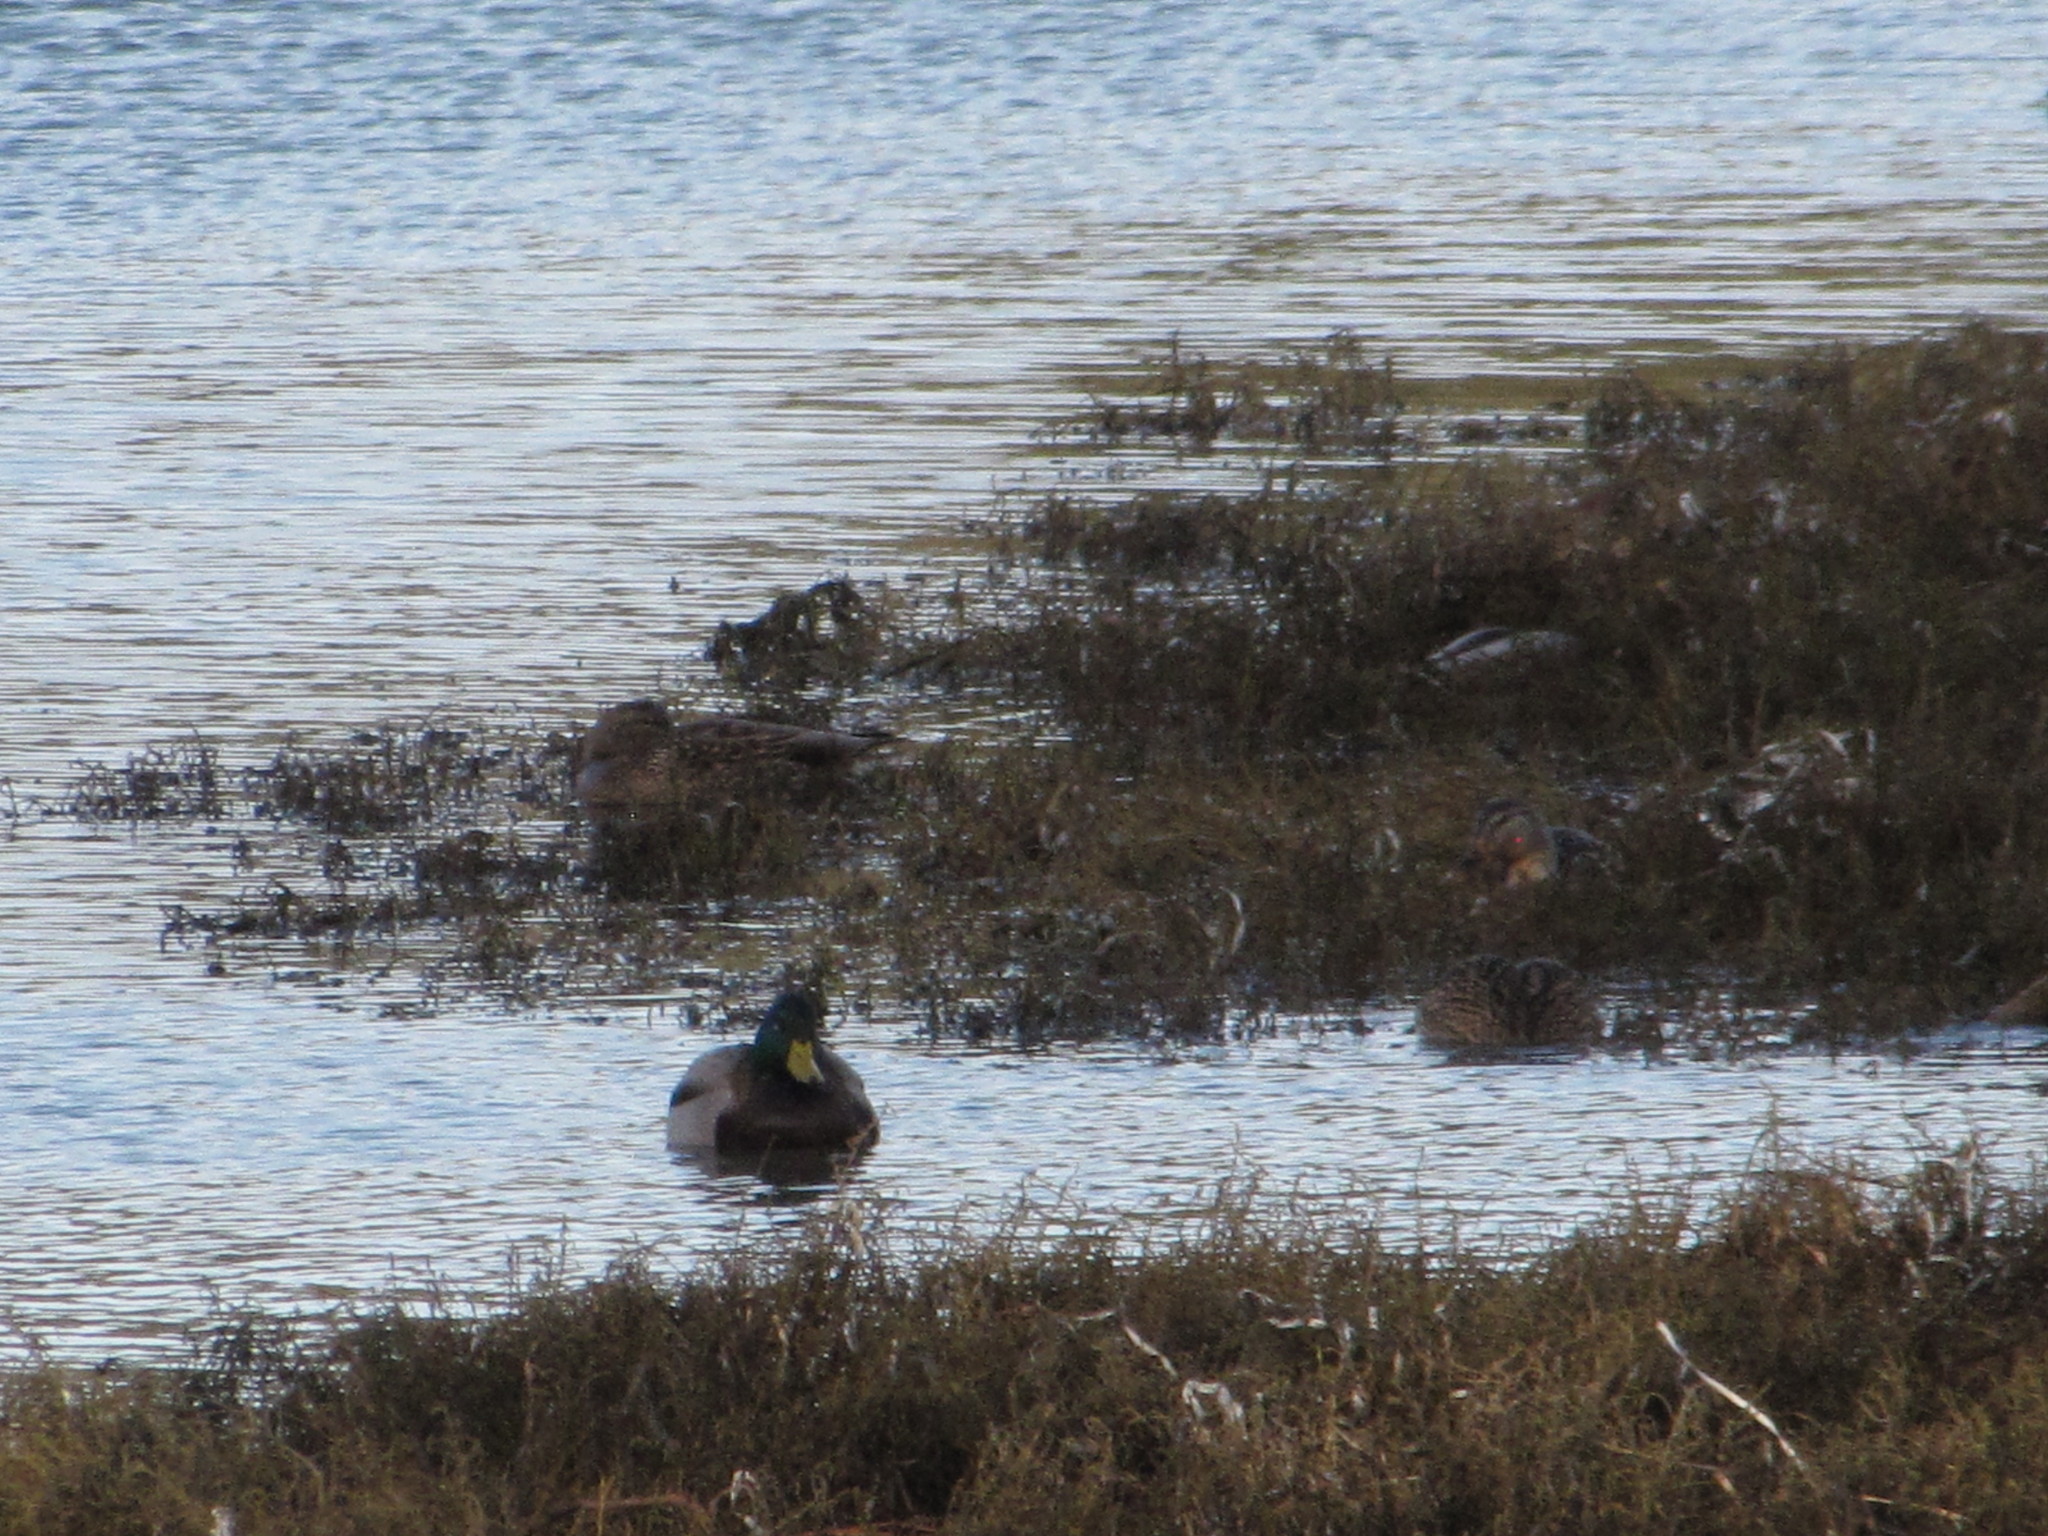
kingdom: Animalia
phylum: Chordata
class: Aves
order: Anseriformes
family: Anatidae
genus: Anas
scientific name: Anas platyrhynchos
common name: Mallard
